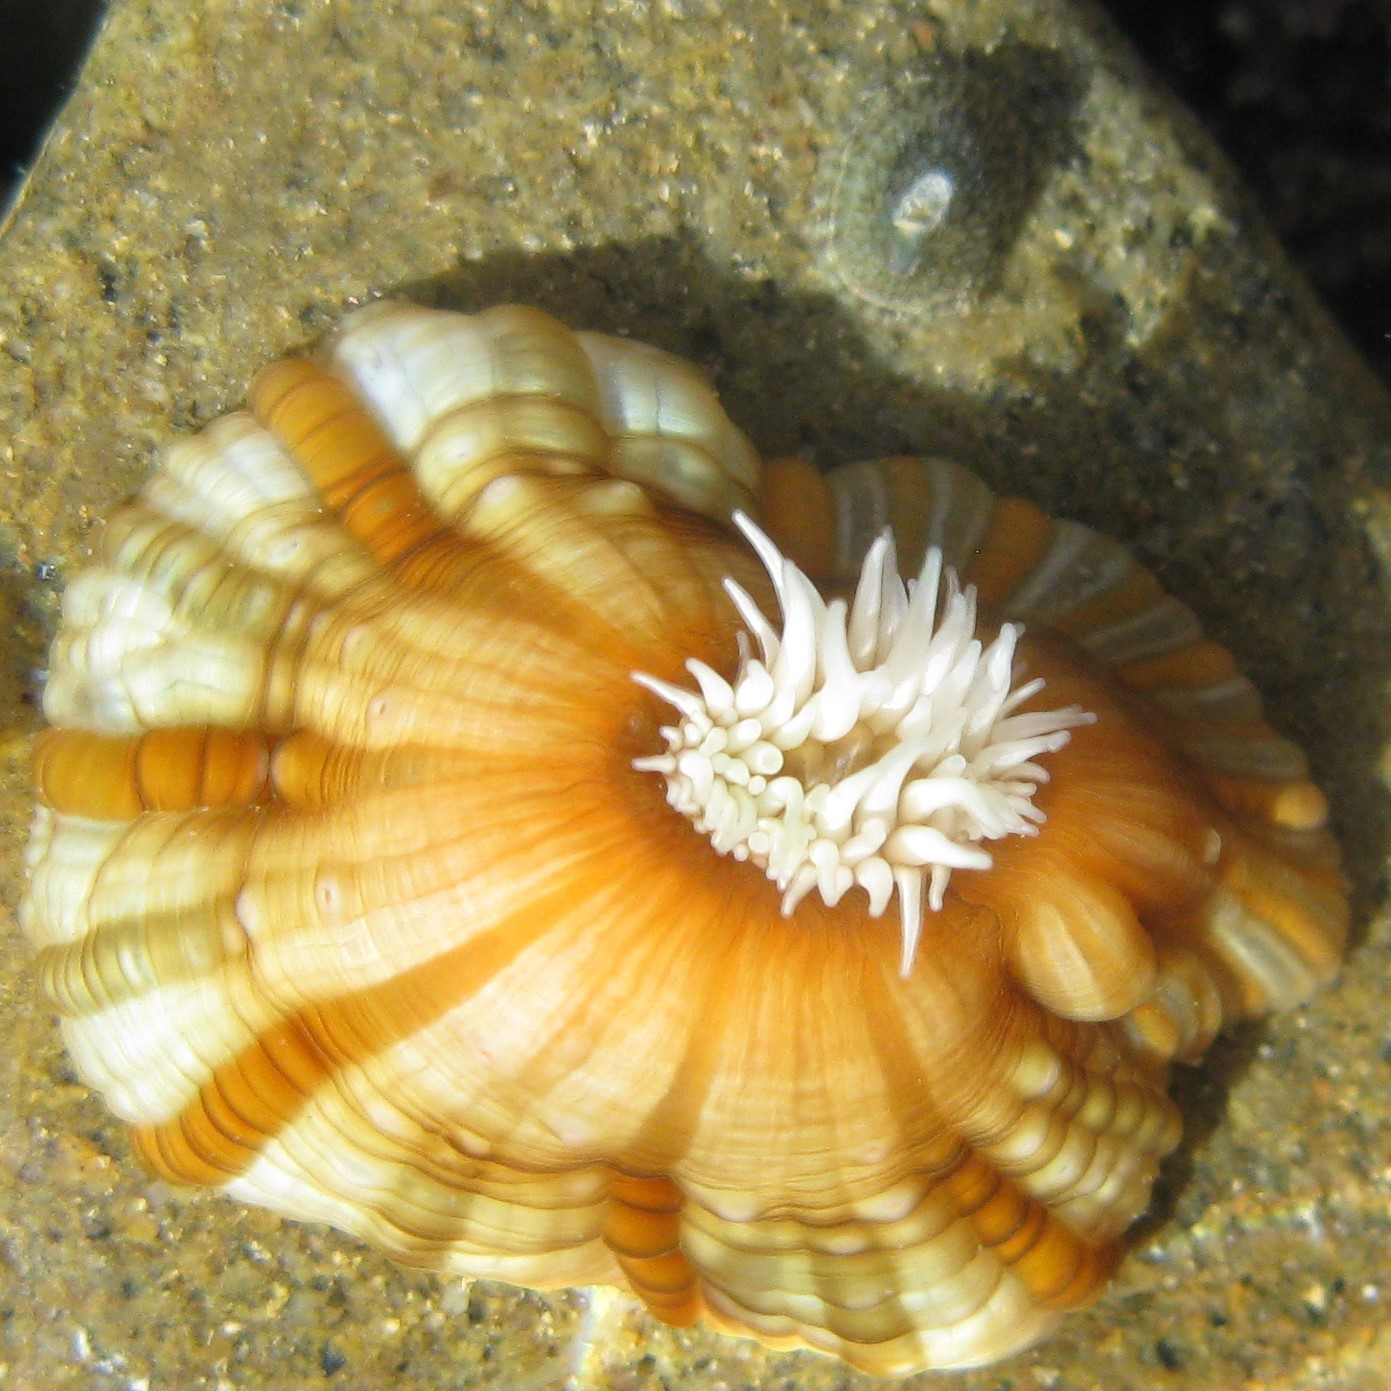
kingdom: Animalia
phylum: Cnidaria
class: Anthozoa
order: Actiniaria
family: Sagartiidae
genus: Anthothoe
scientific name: Anthothoe albocincta
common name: Orange striped anemone
